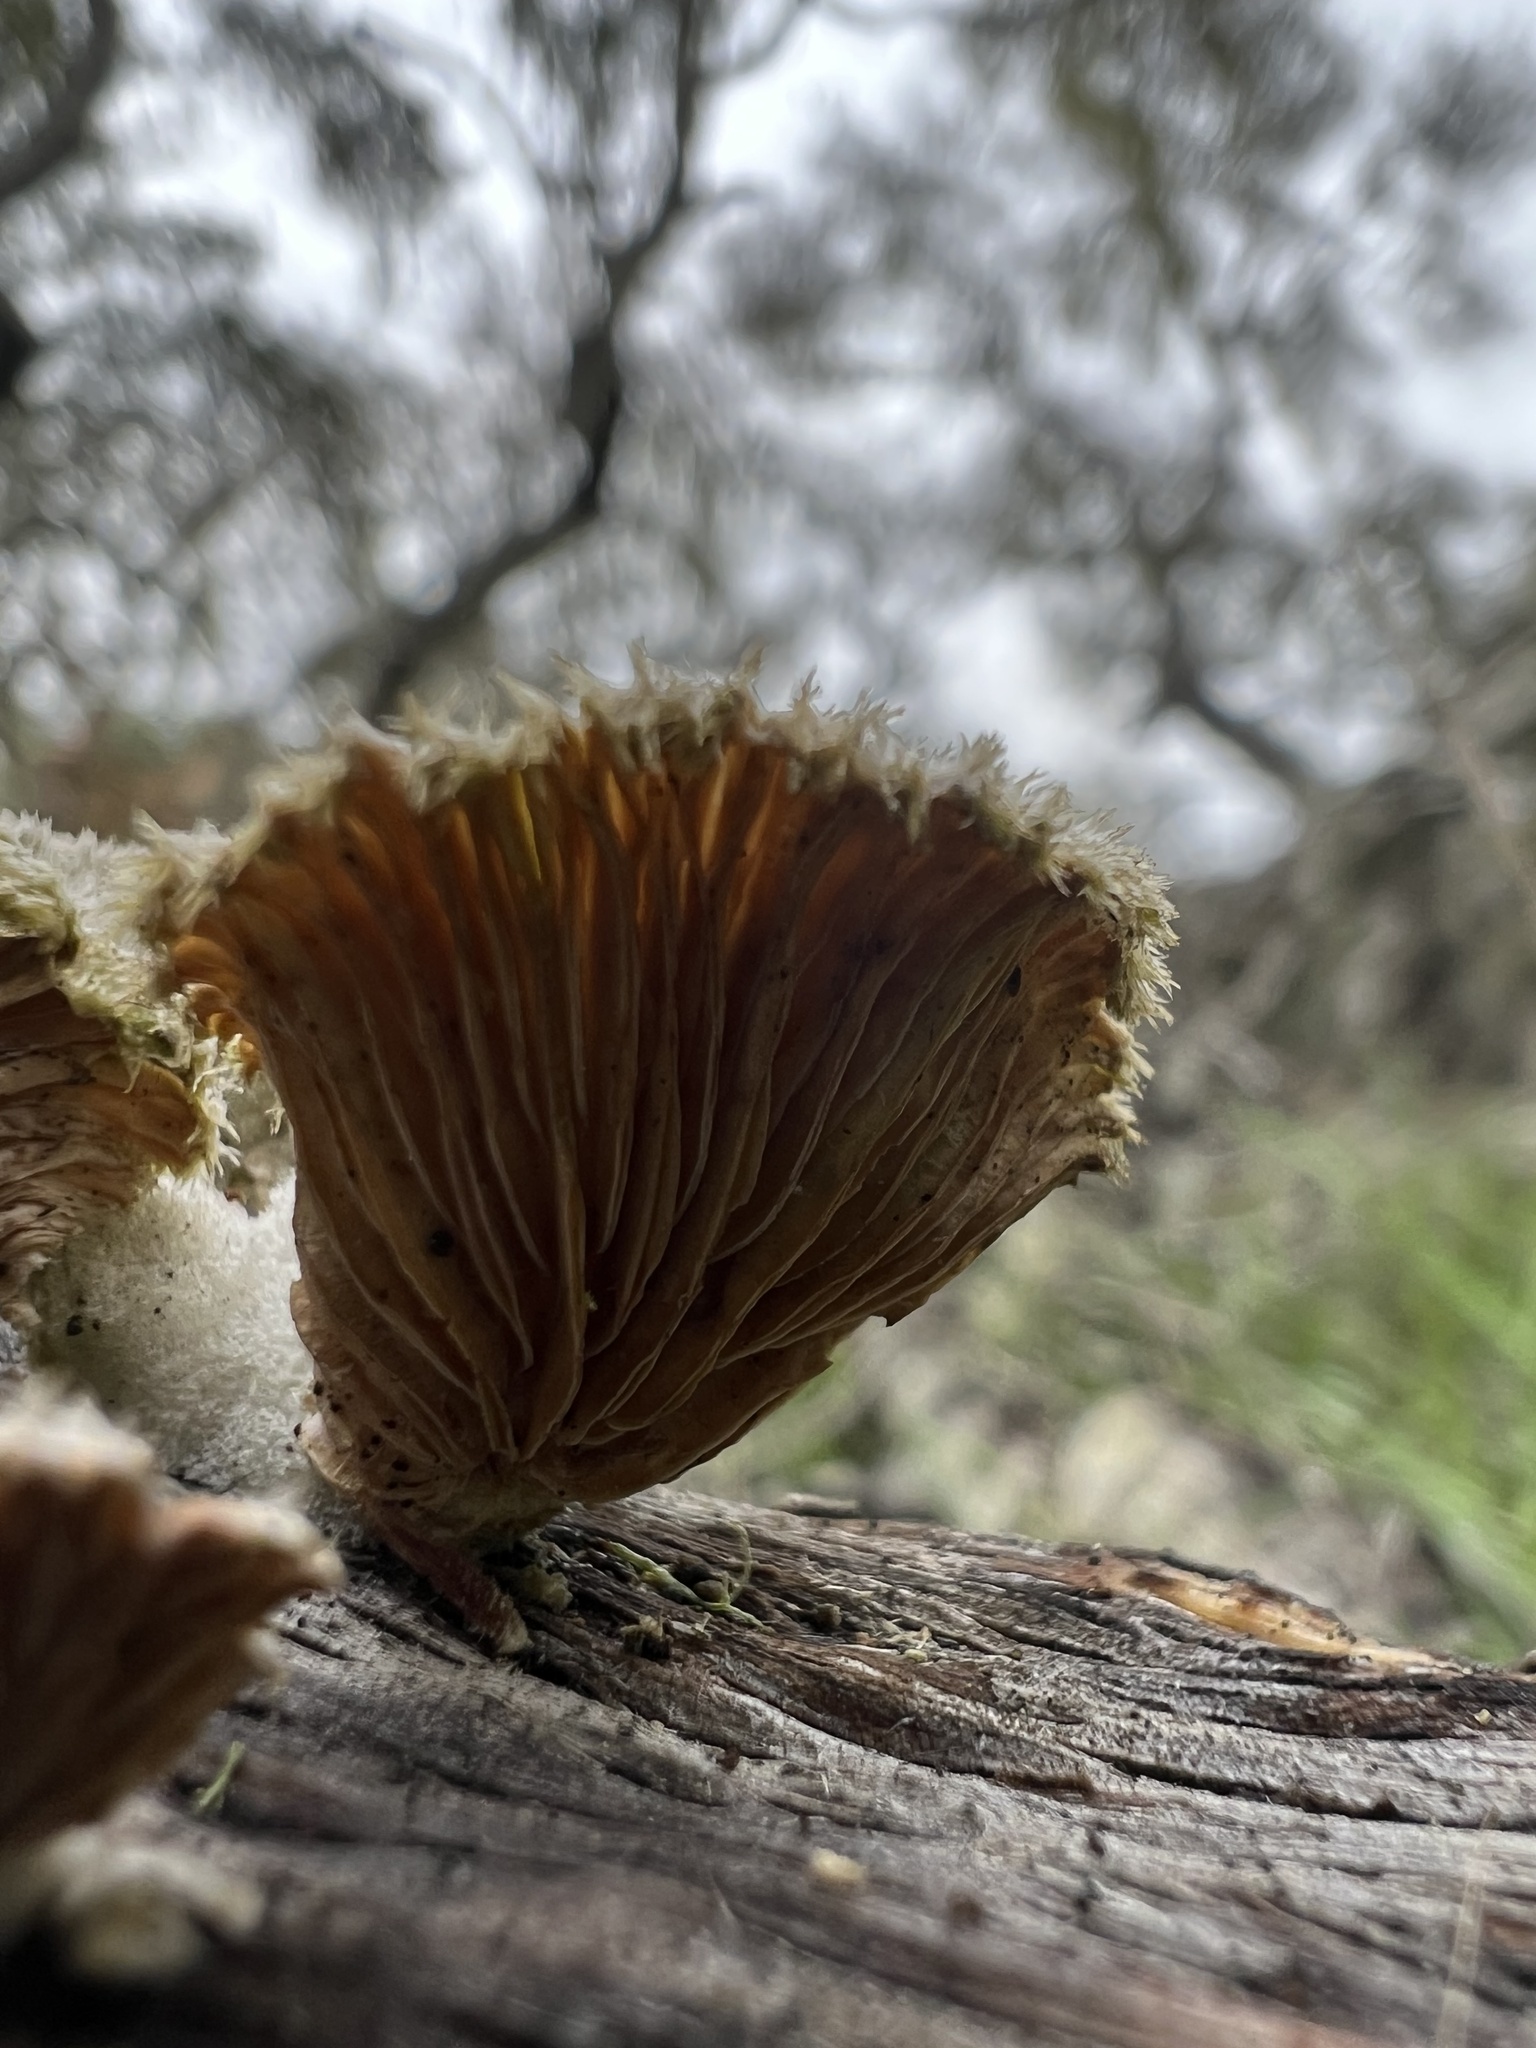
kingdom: Fungi
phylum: Basidiomycota
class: Agaricomycetes
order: Agaricales
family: Schizophyllaceae
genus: Schizophyllum
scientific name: Schizophyllum commune
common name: Common porecrust
